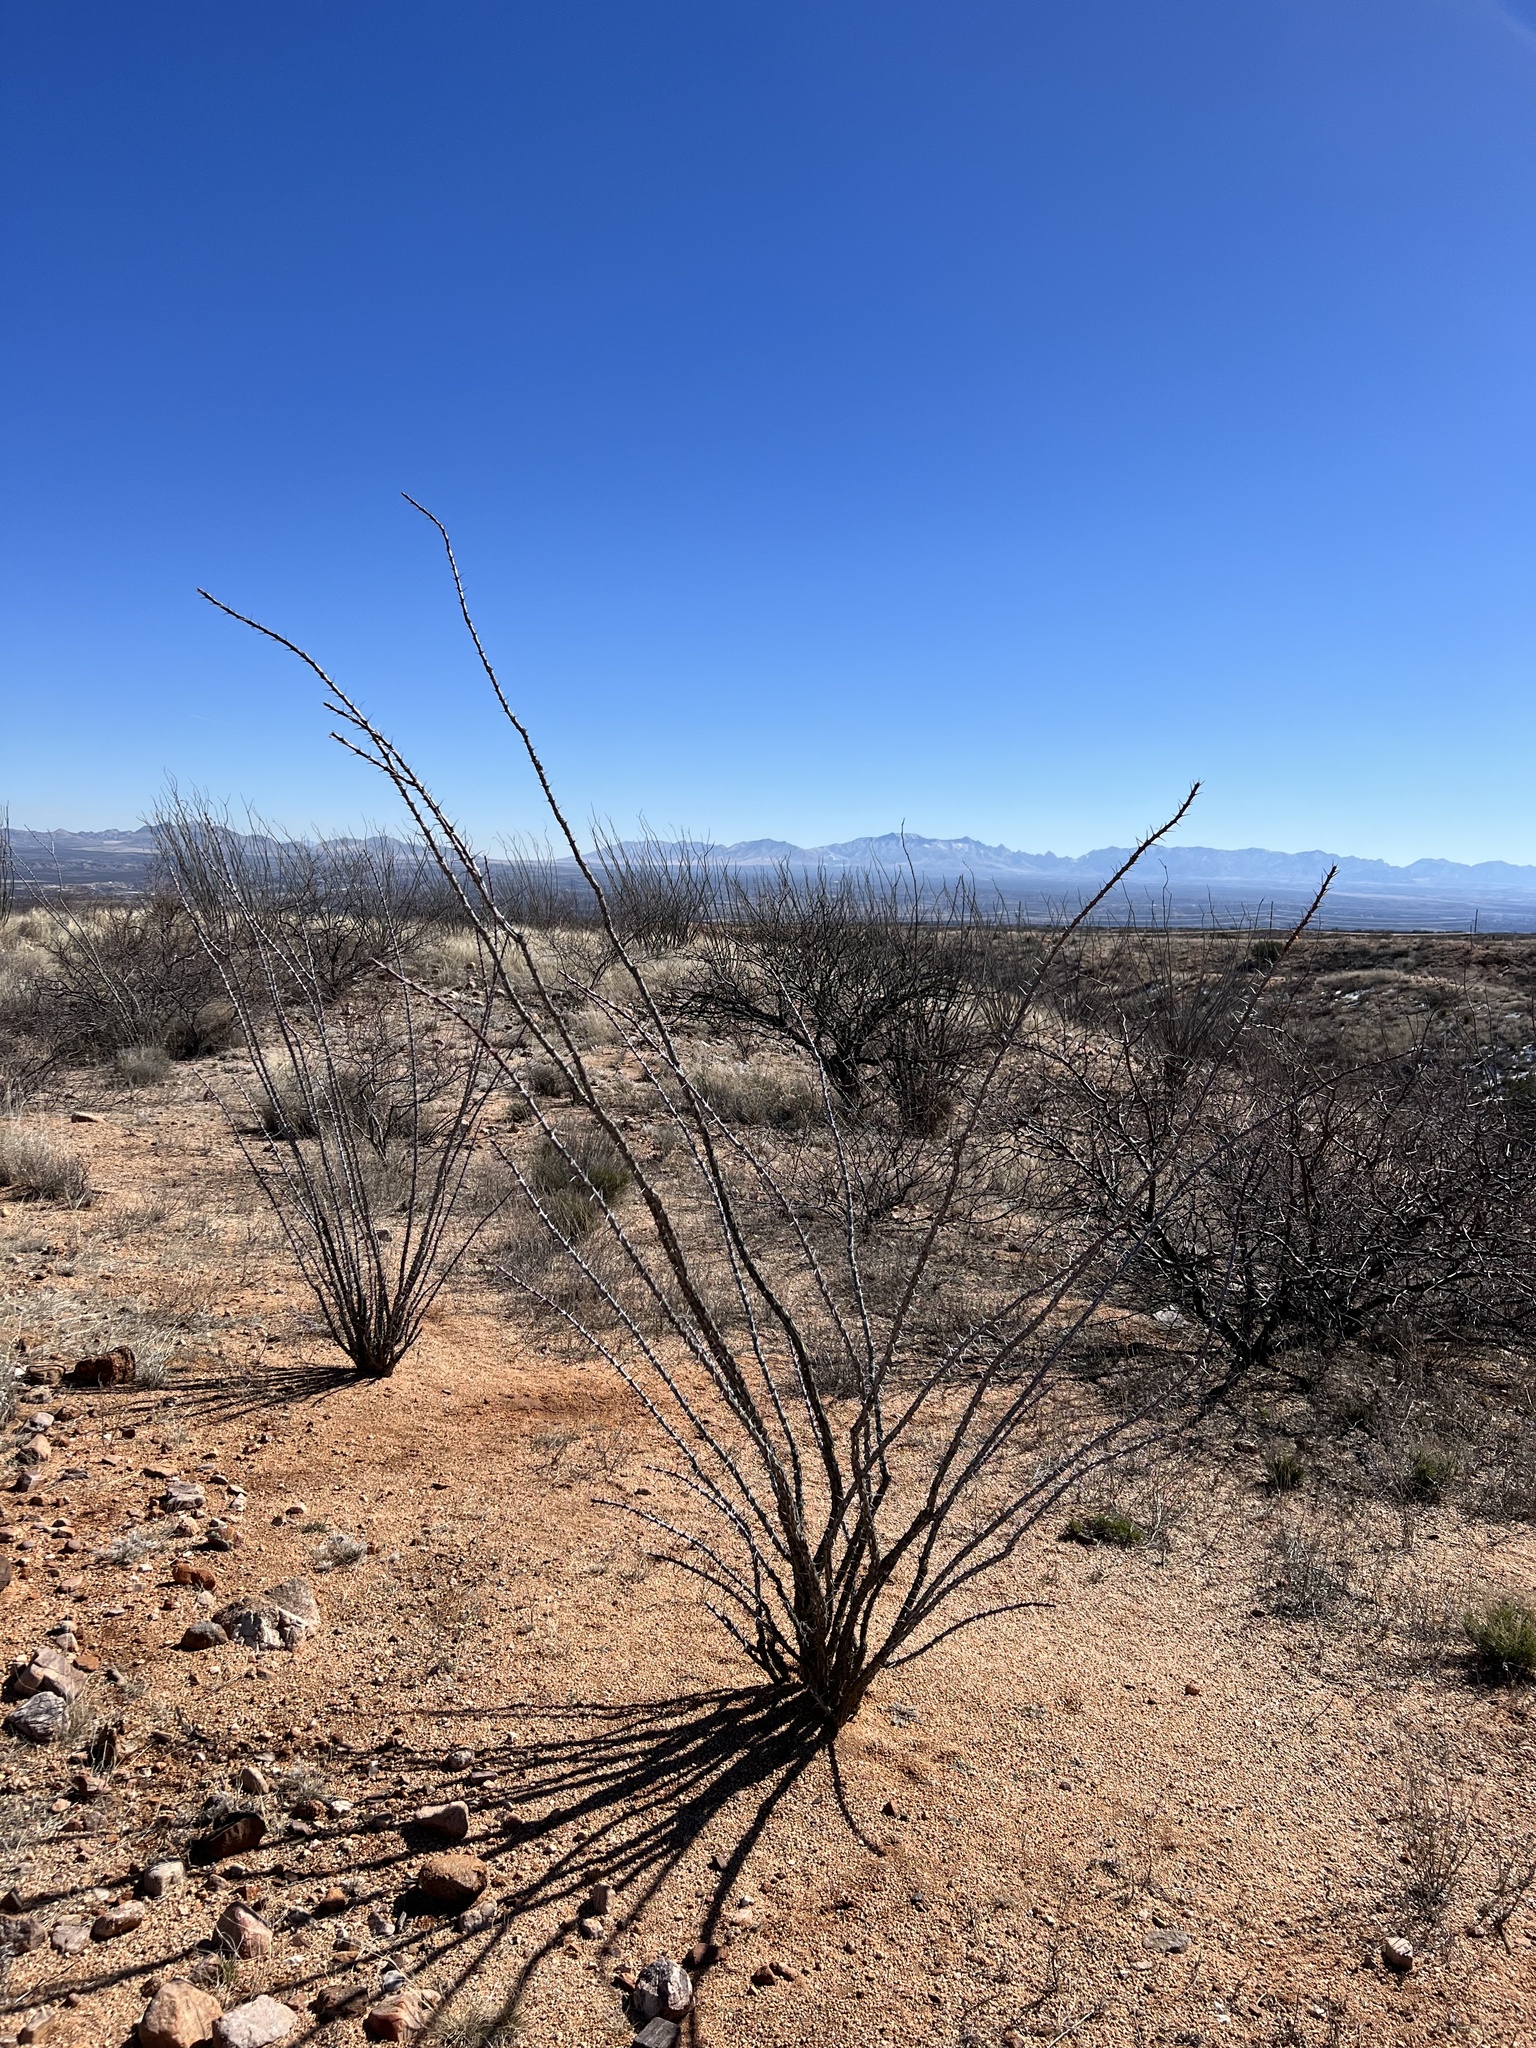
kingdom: Plantae
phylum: Tracheophyta
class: Magnoliopsida
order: Ericales
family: Fouquieriaceae
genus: Fouquieria
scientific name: Fouquieria splendens
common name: Vine-cactus
